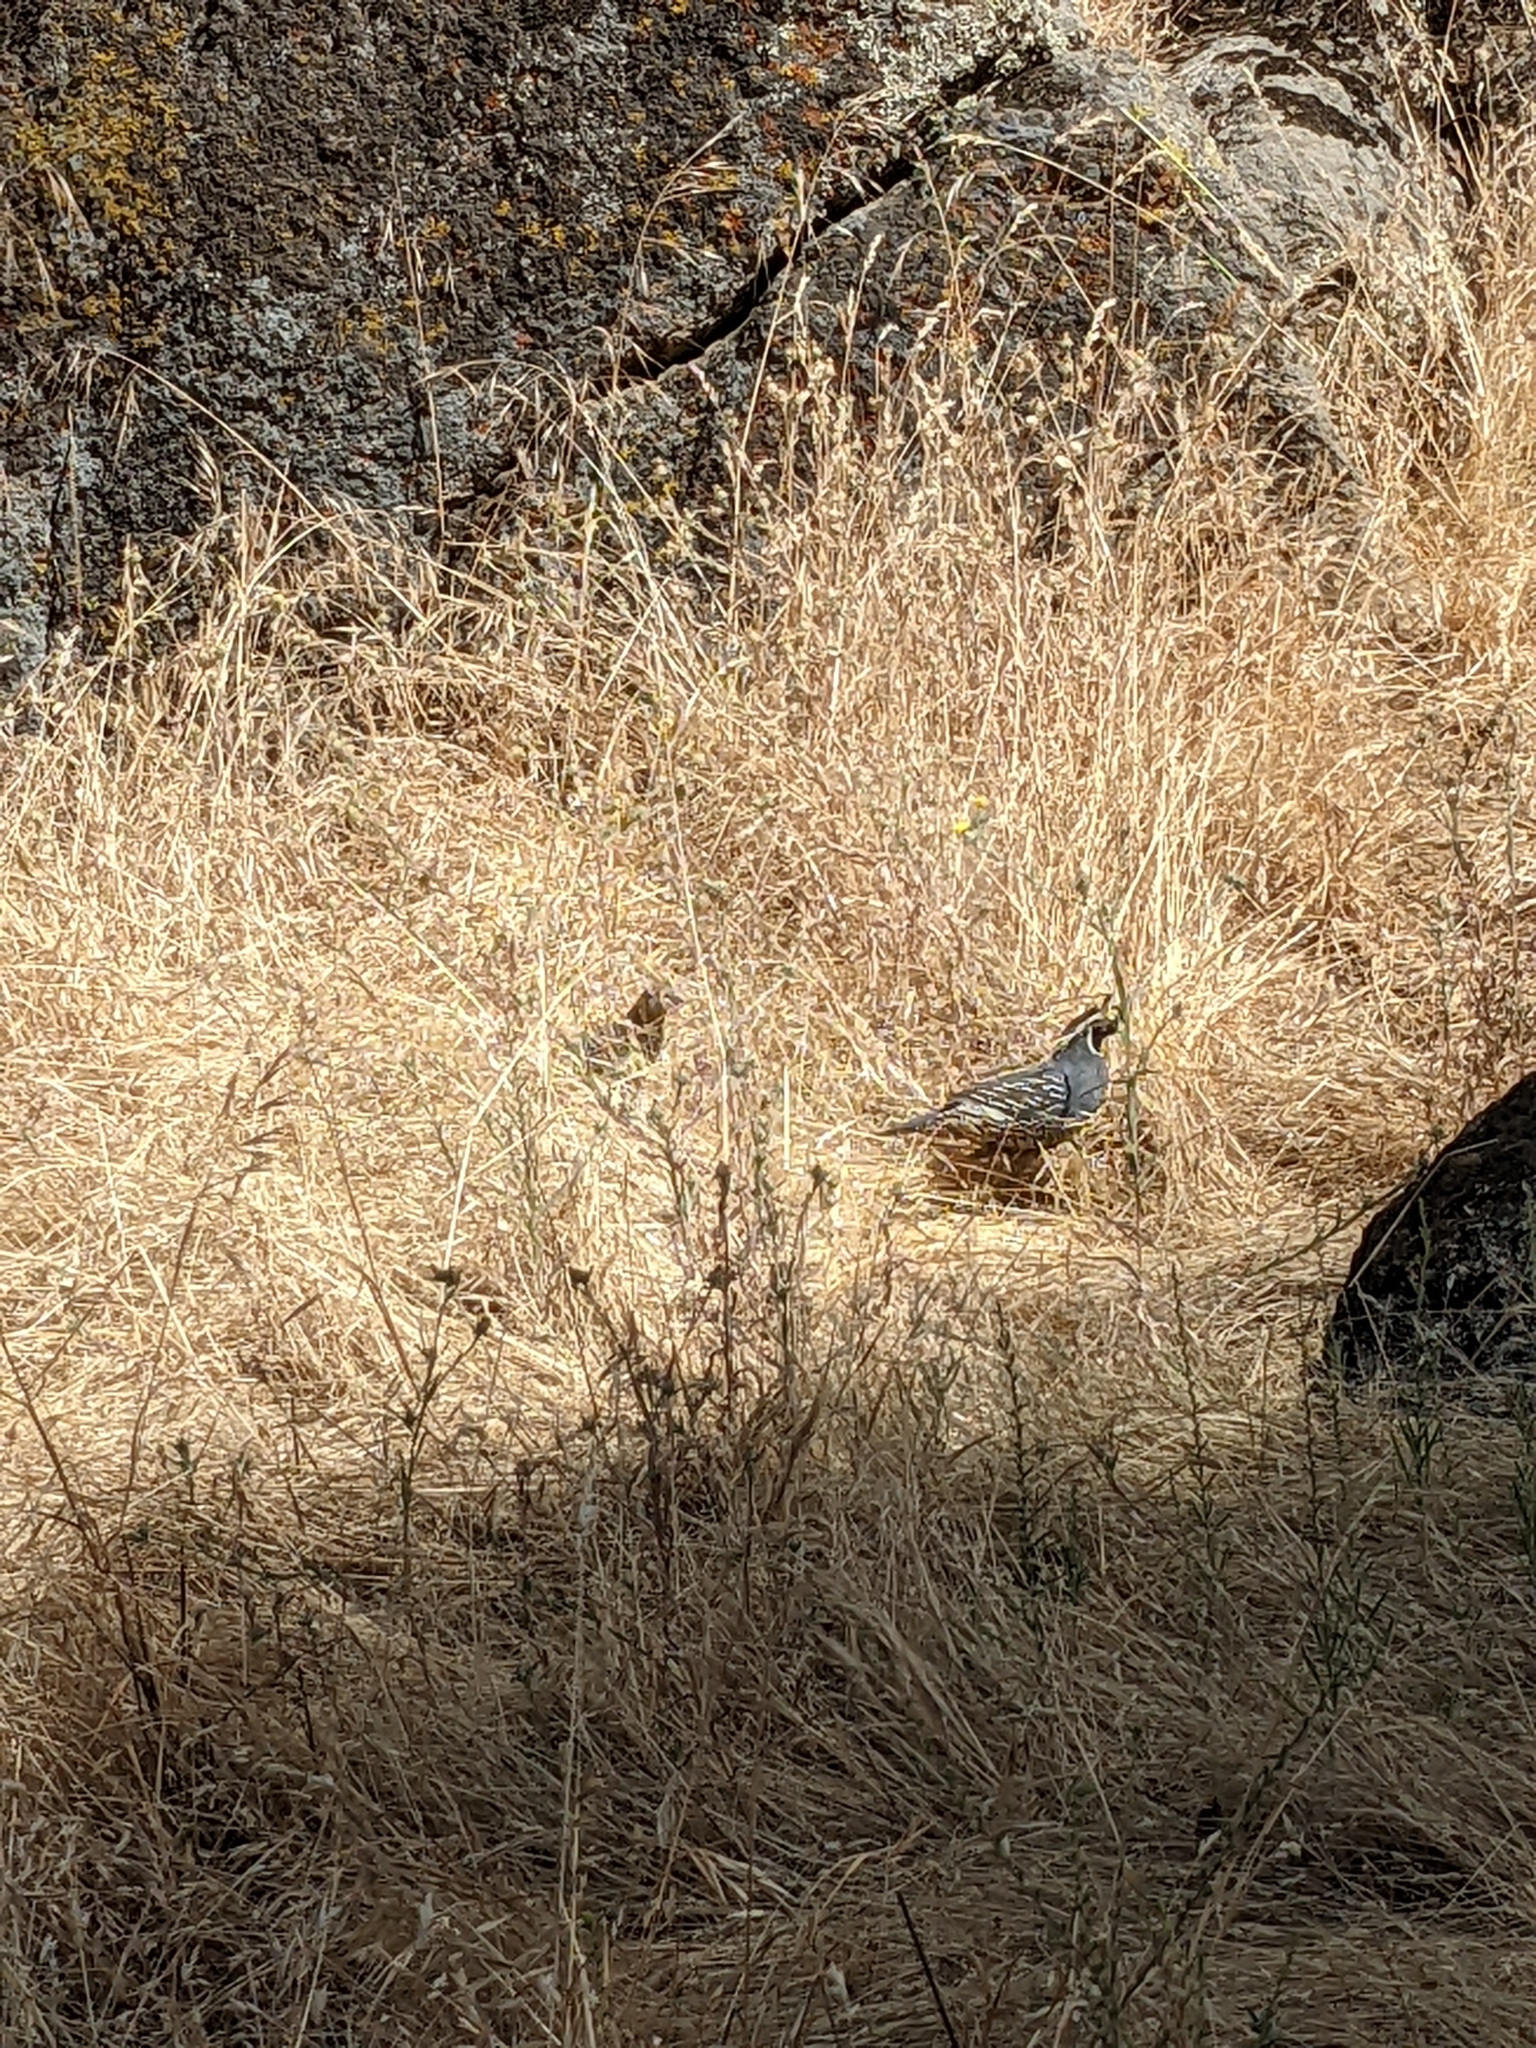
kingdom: Animalia
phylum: Chordata
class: Aves
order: Galliformes
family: Odontophoridae
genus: Callipepla
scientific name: Callipepla californica
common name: California quail
